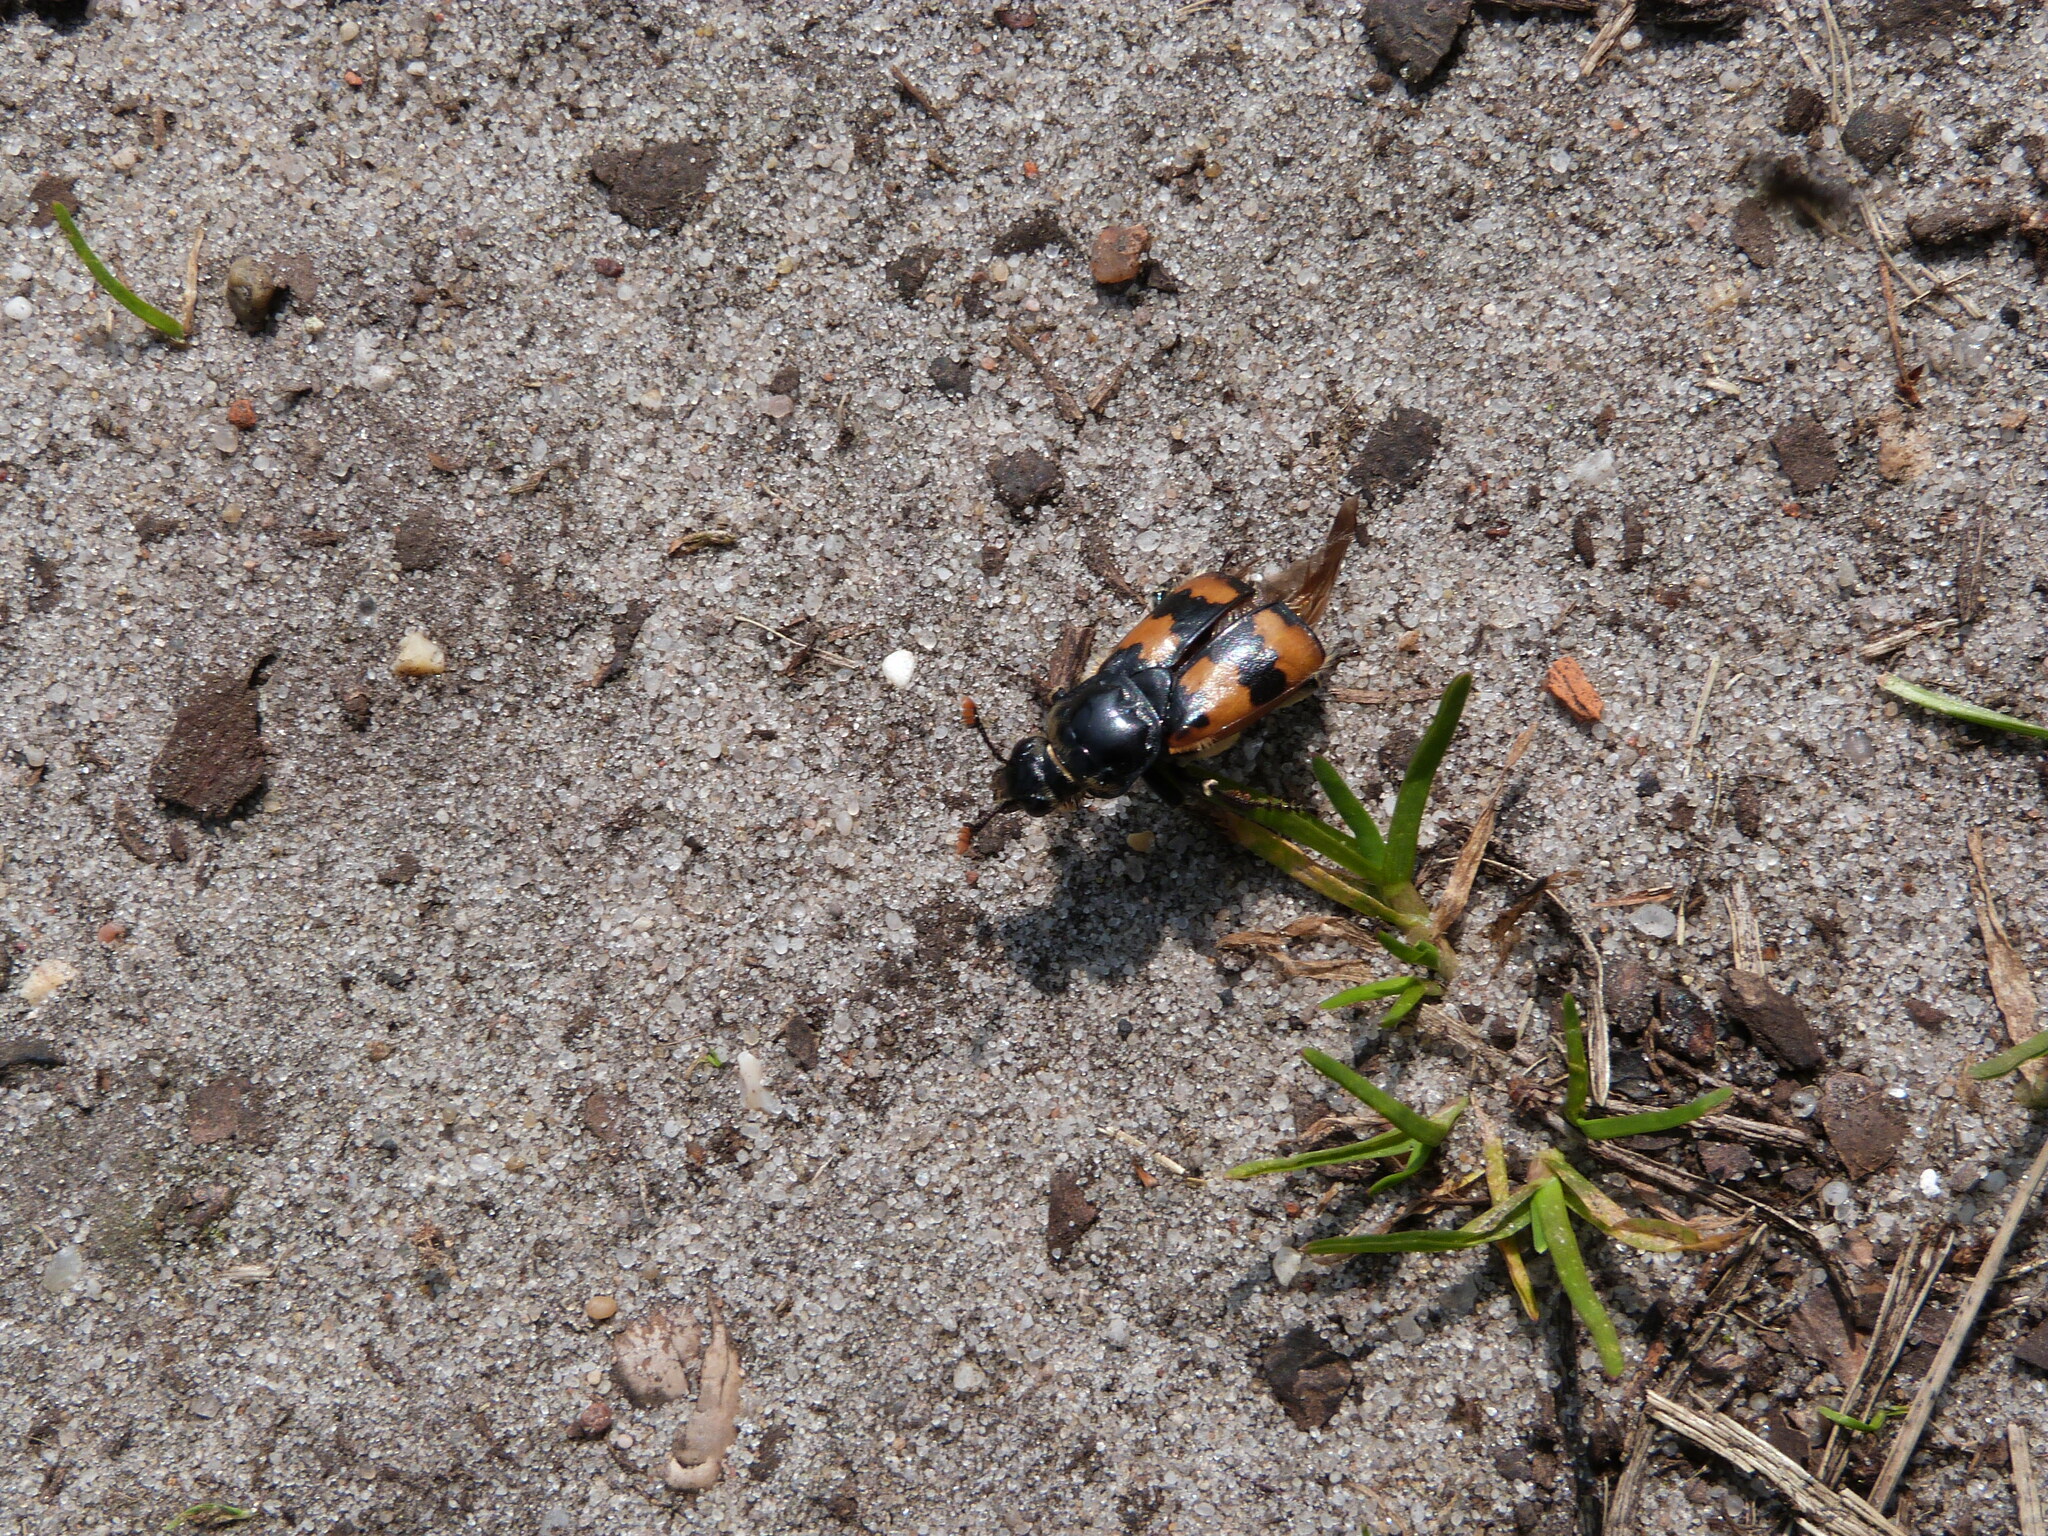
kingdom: Animalia
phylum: Arthropoda
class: Insecta
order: Coleoptera
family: Staphylinidae
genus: Nicrophorus
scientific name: Nicrophorus vespillo
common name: Common burying beetle
